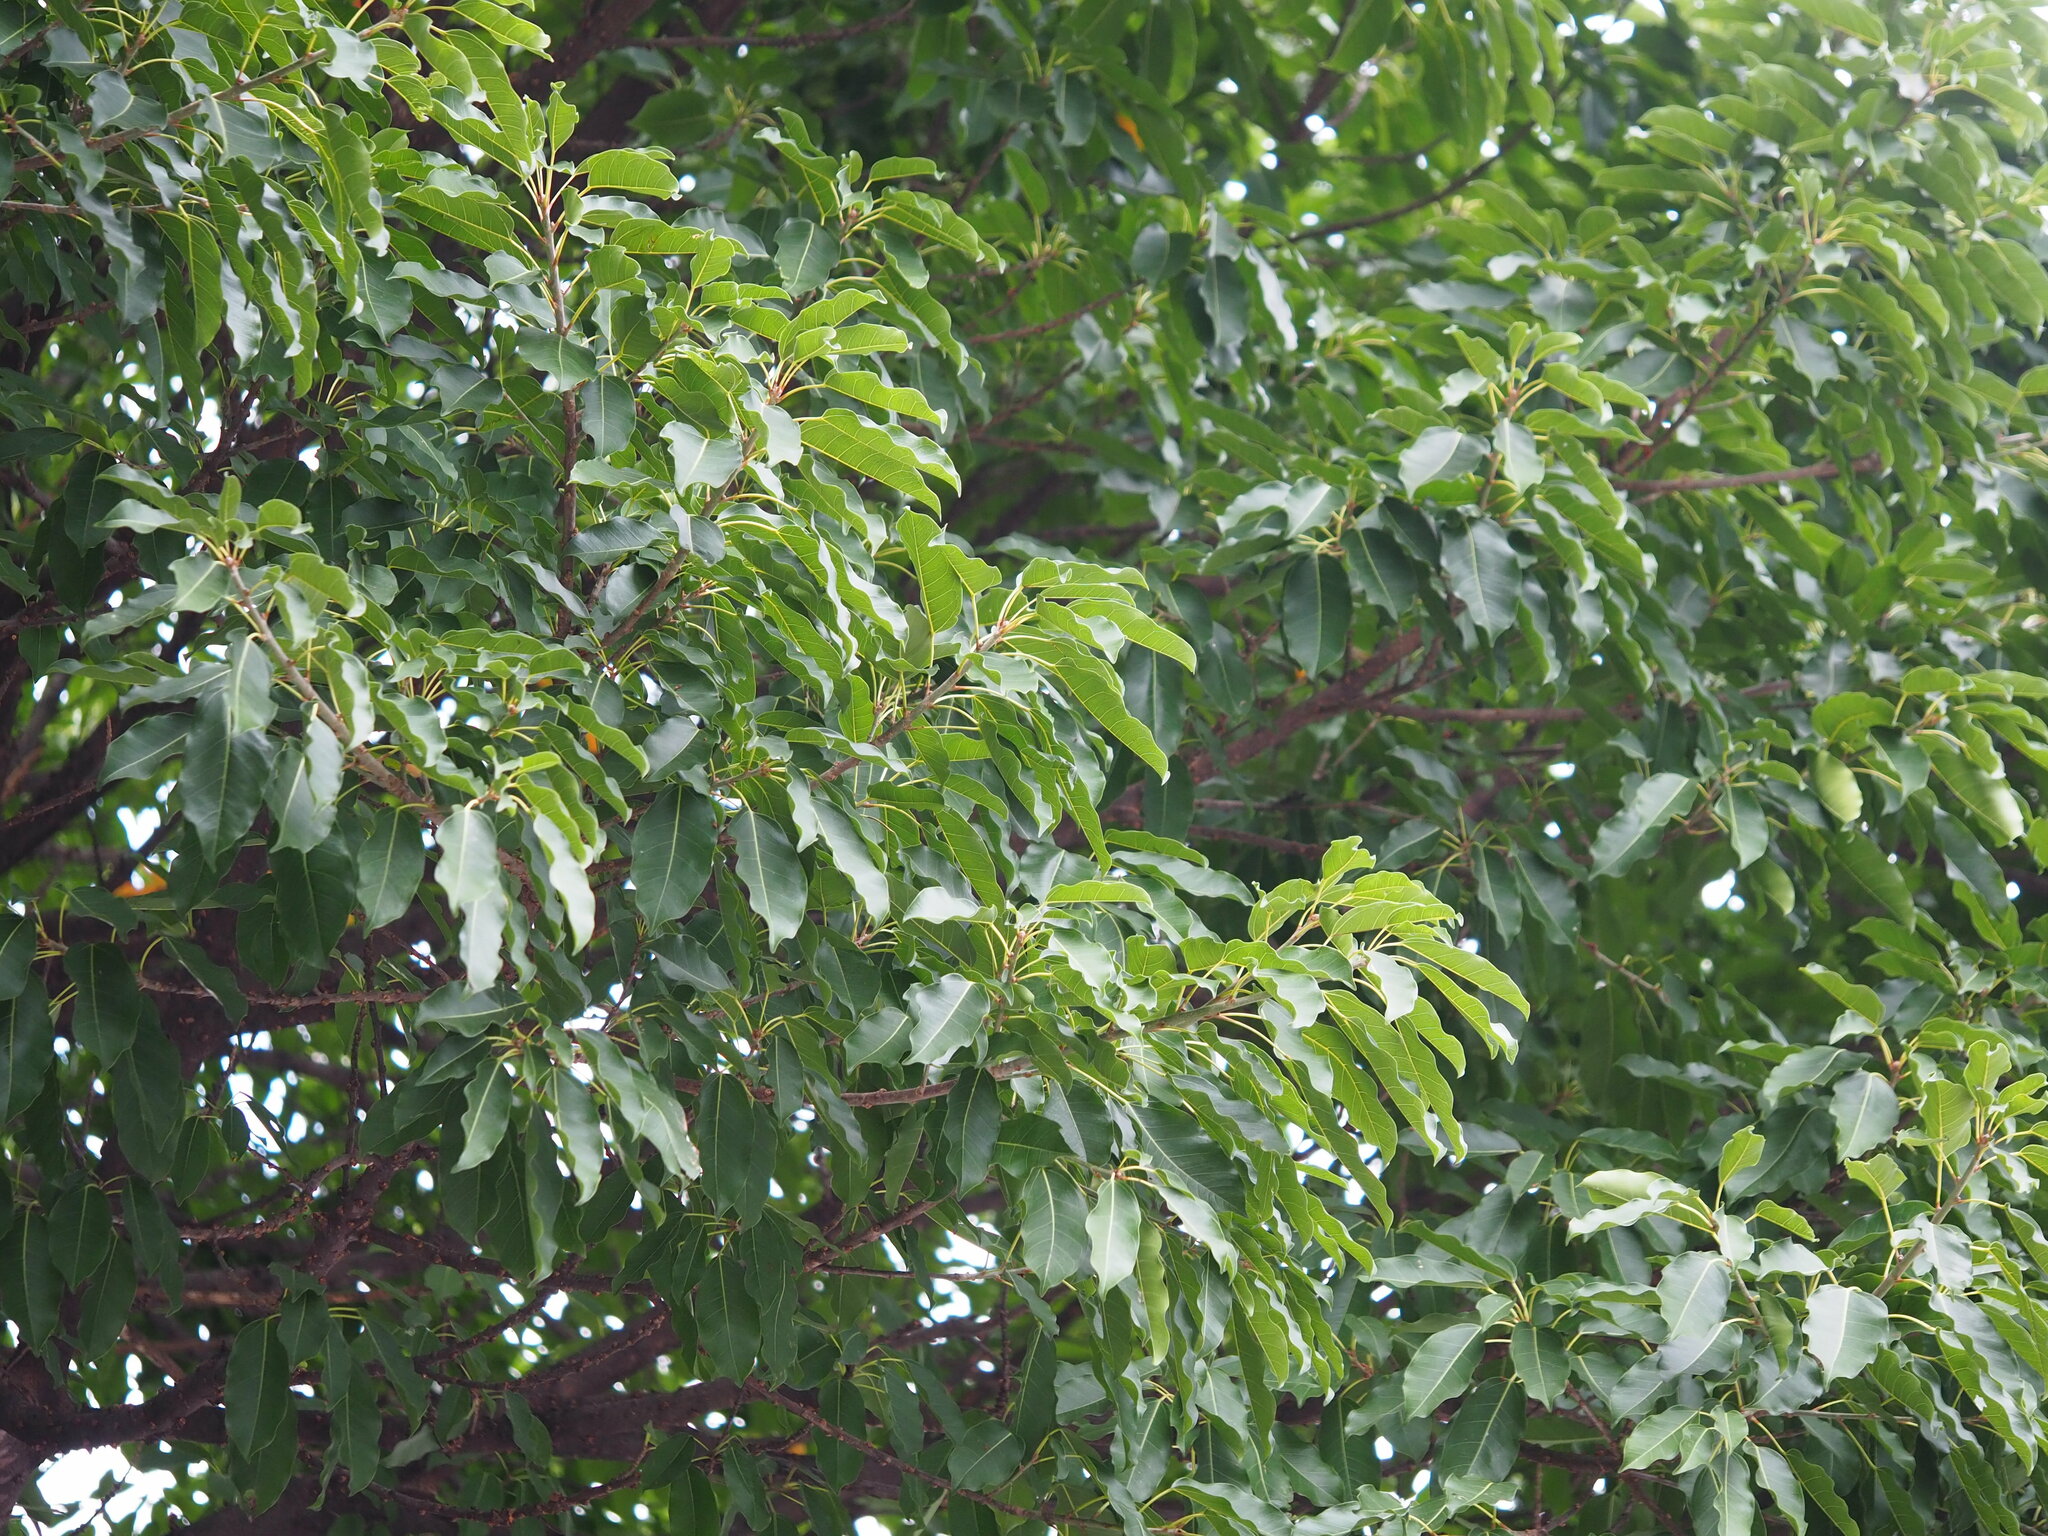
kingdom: Plantae
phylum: Tracheophyta
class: Magnoliopsida
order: Rosales
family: Moraceae
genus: Ficus
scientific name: Ficus subpisocarpa
